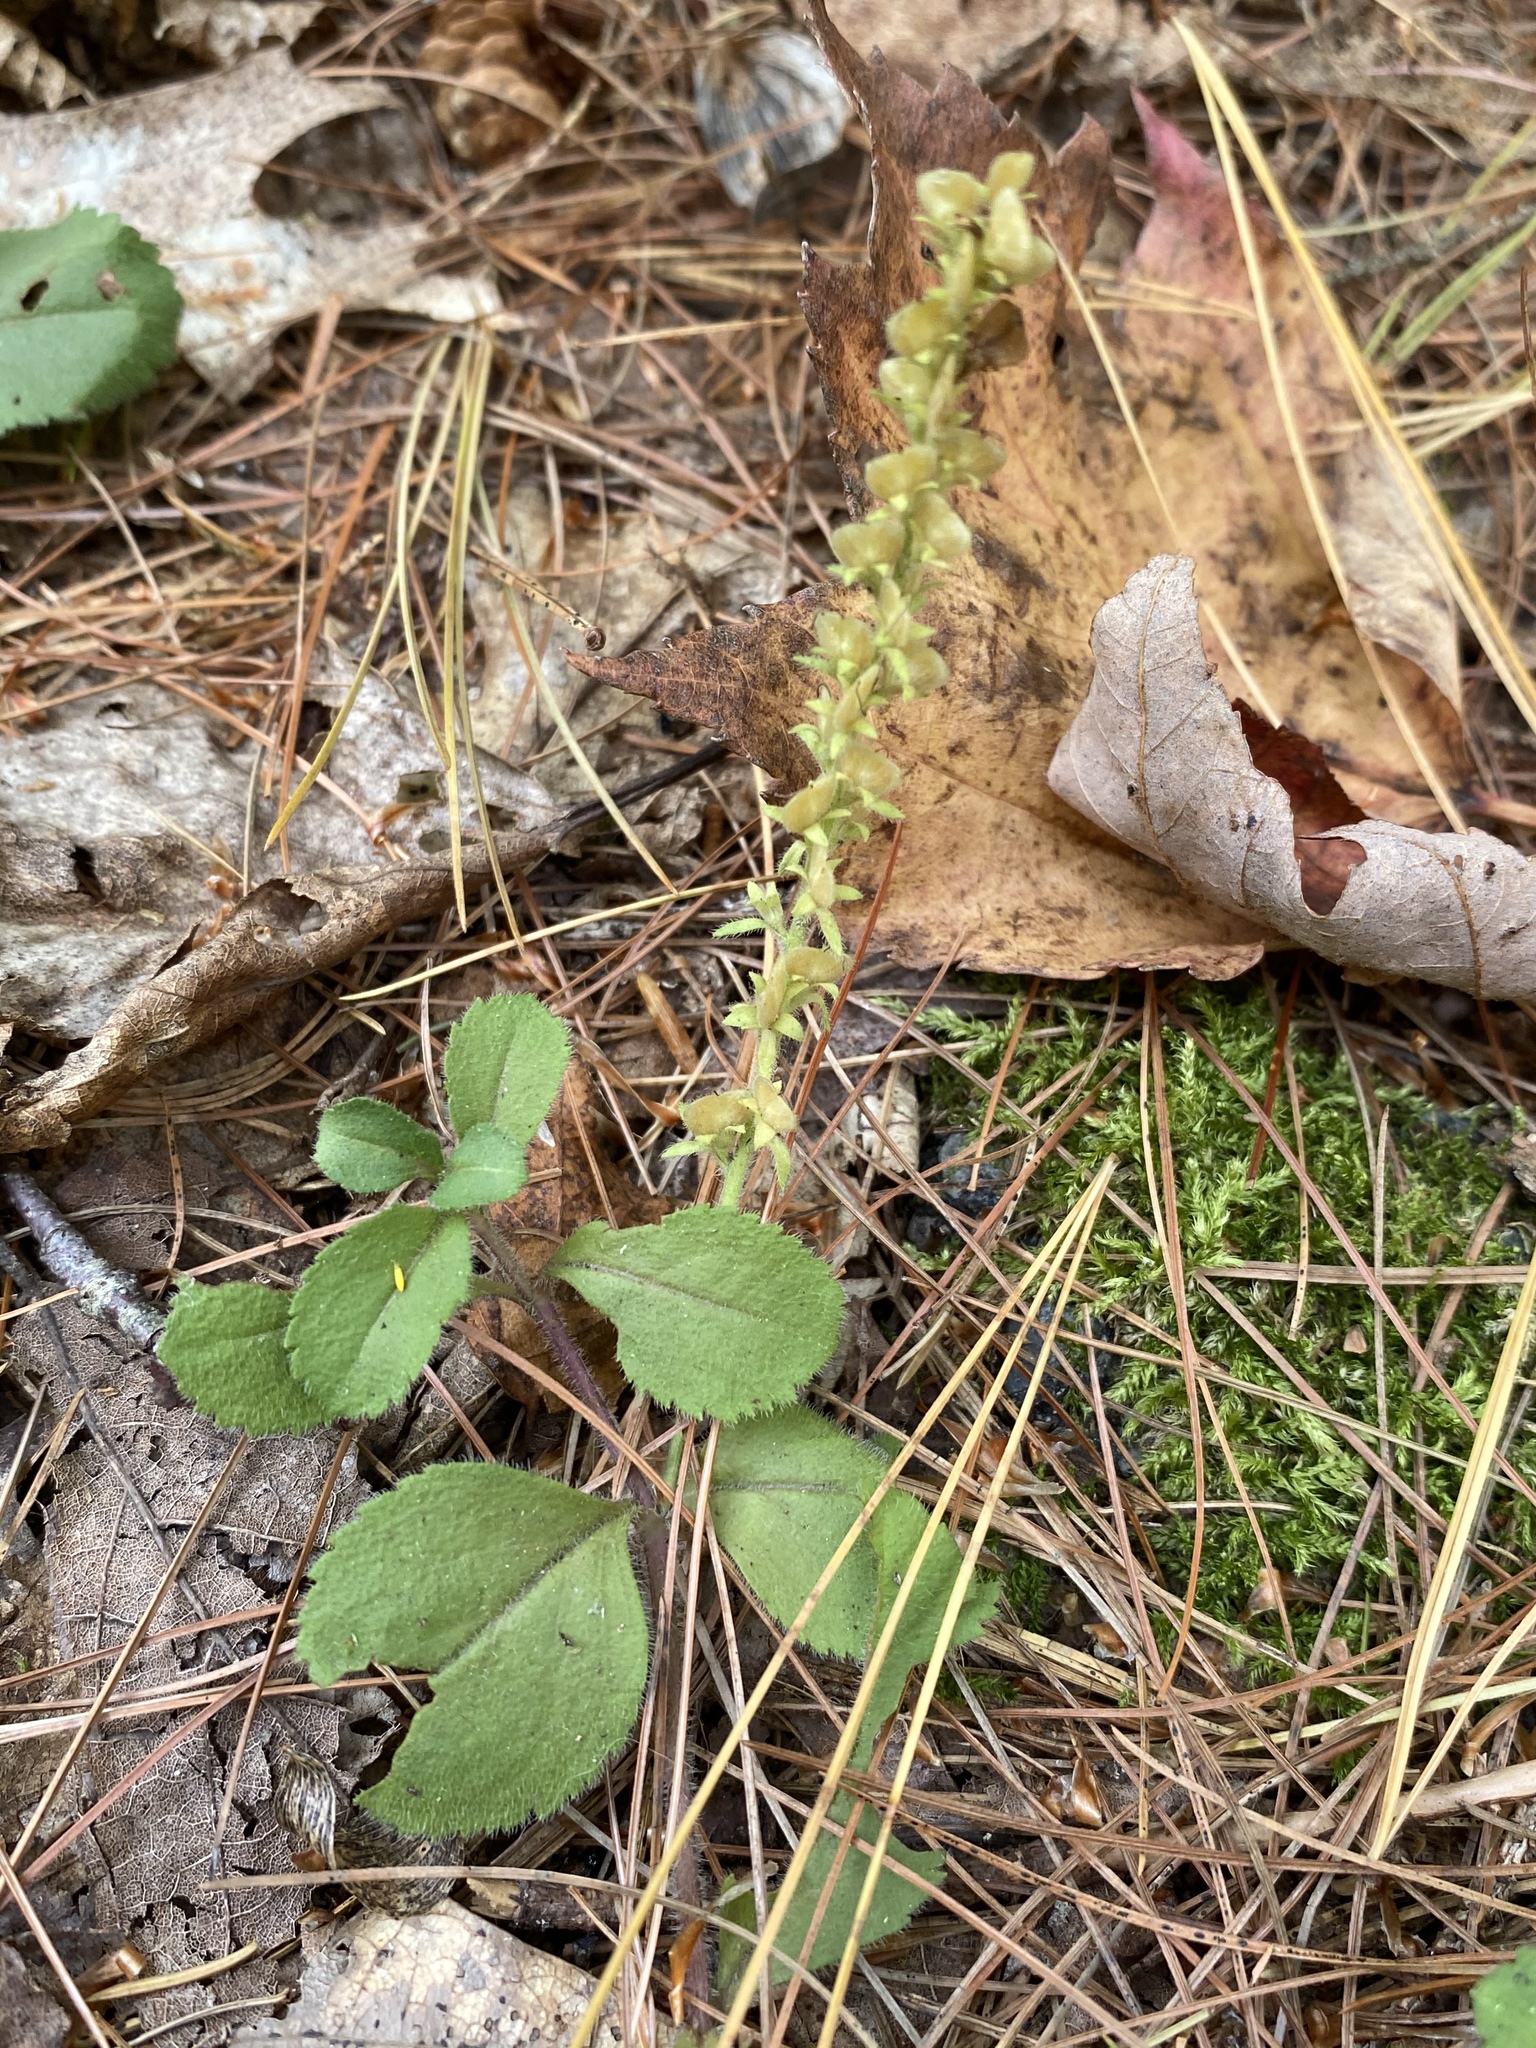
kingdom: Plantae
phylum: Tracheophyta
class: Magnoliopsida
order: Lamiales
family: Plantaginaceae
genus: Veronica
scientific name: Veronica officinalis
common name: Common speedwell
